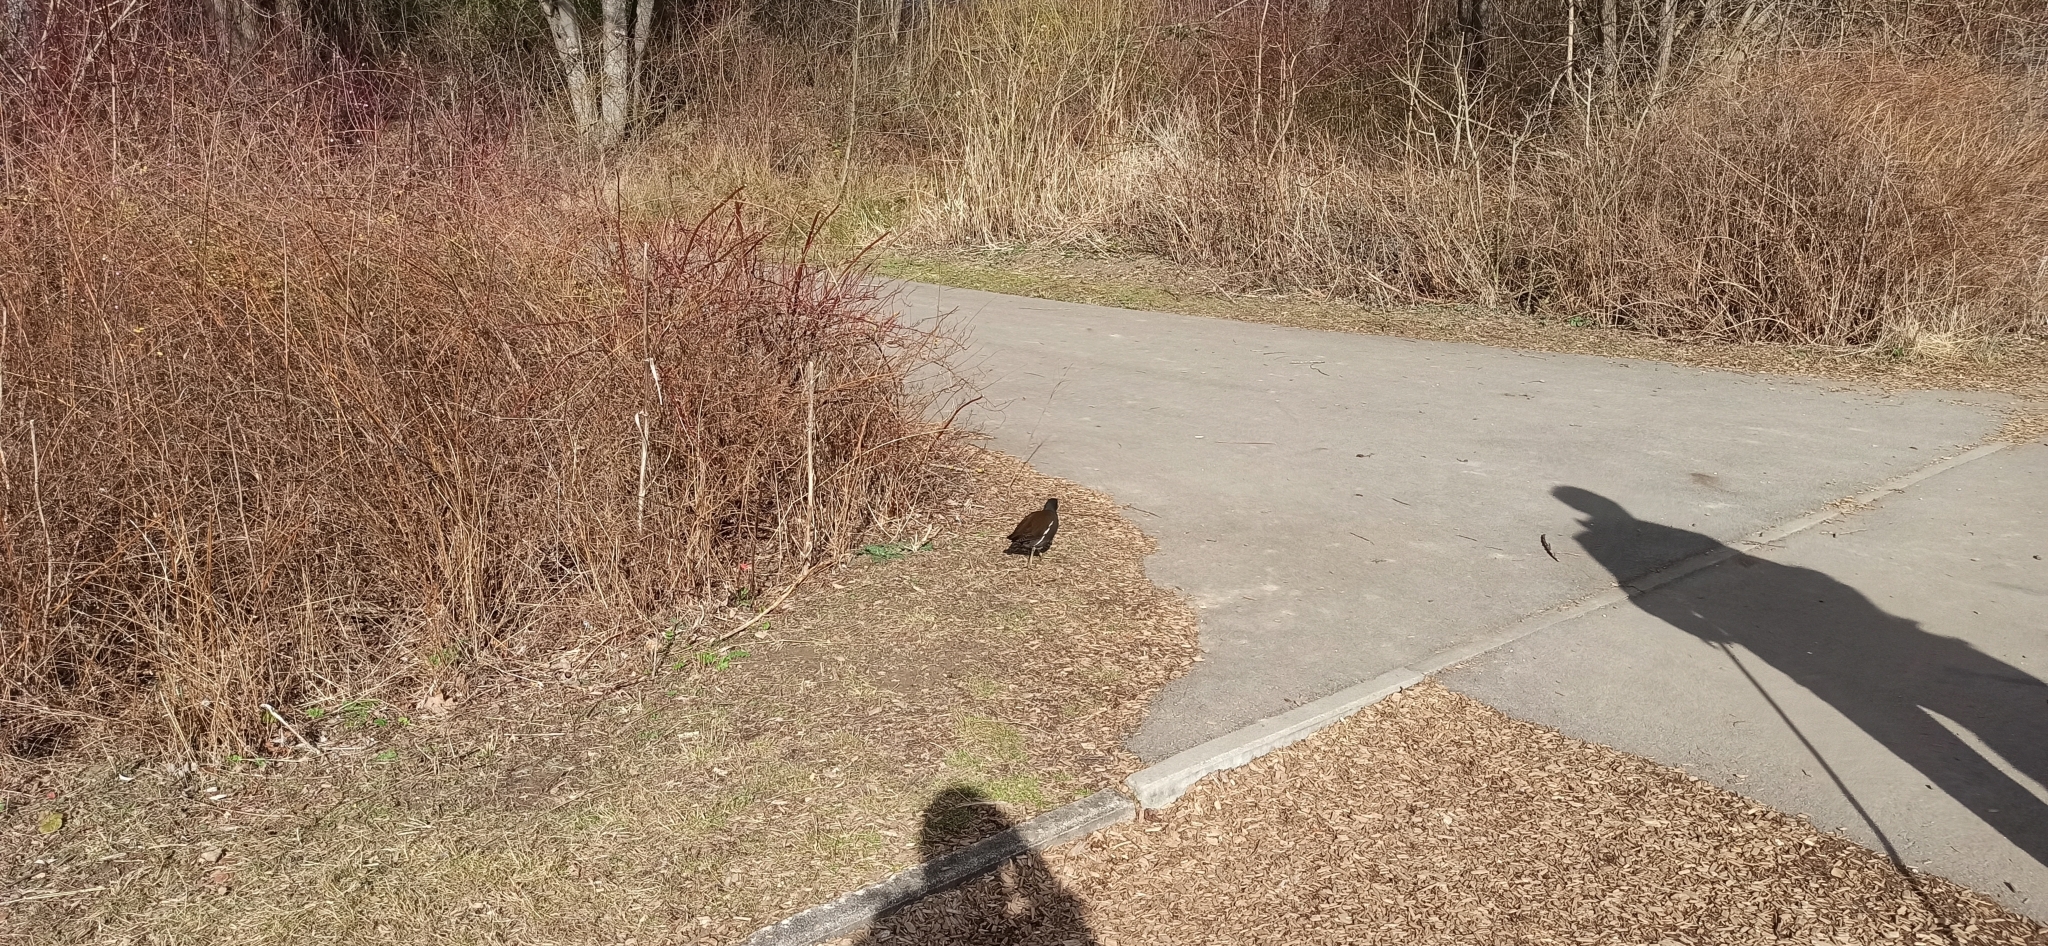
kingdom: Animalia
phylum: Chordata
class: Aves
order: Gruiformes
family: Rallidae
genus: Gallinula
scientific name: Gallinula chloropus
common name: Common moorhen
